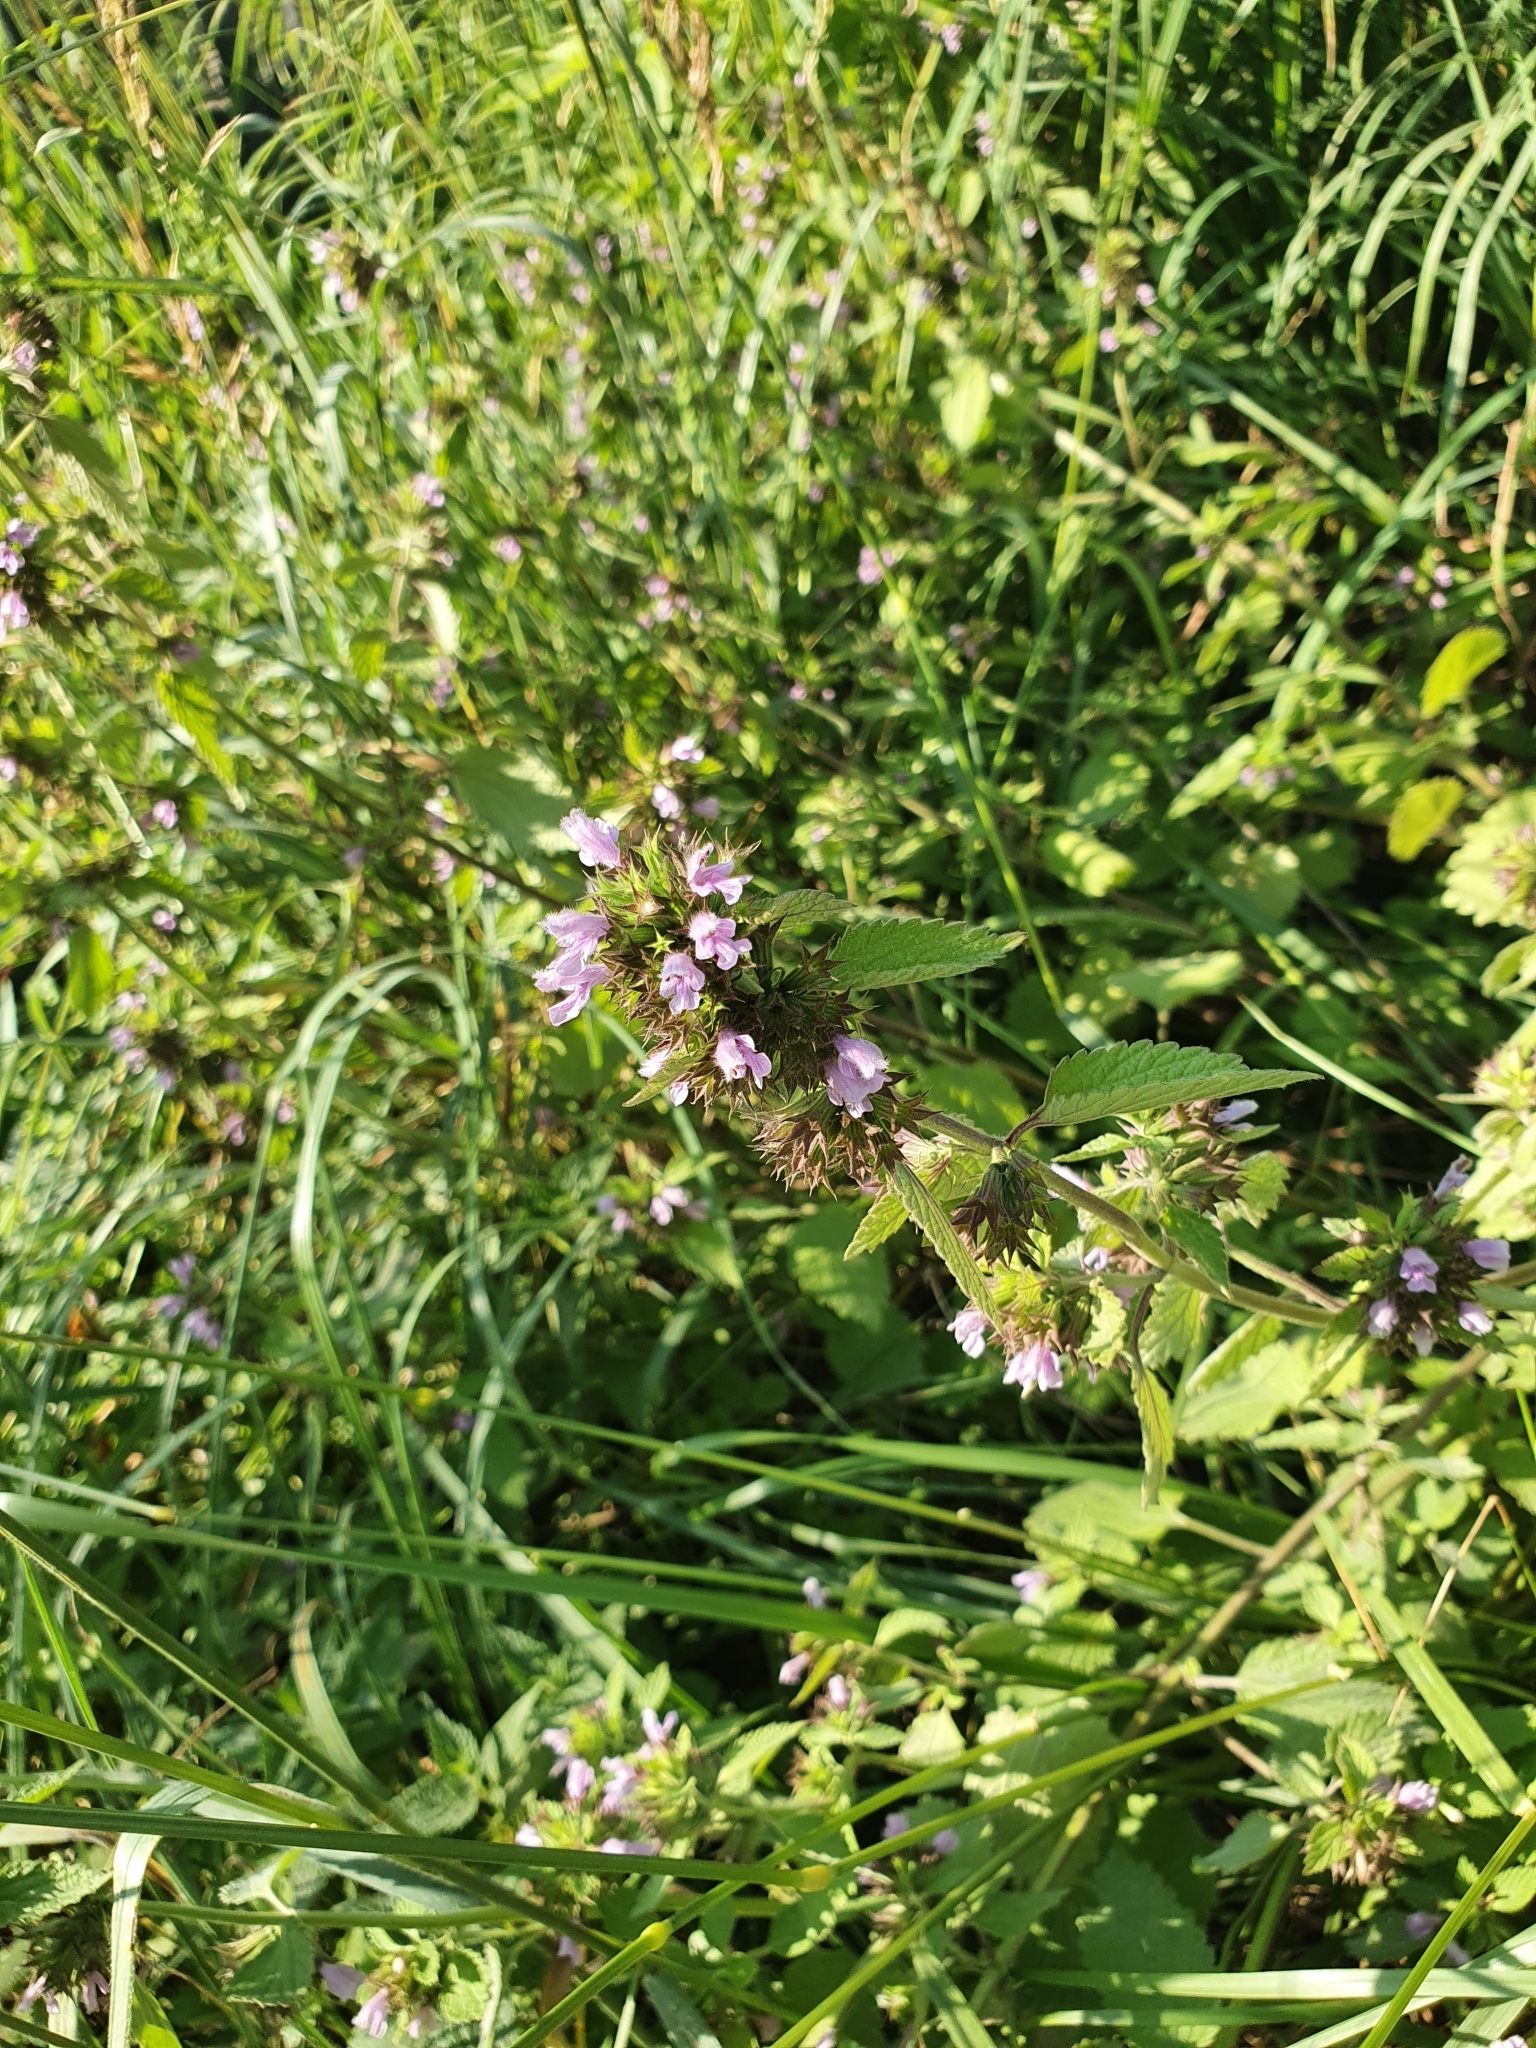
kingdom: Plantae
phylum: Tracheophyta
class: Magnoliopsida
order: Lamiales
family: Lamiaceae
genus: Ballota
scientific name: Ballota nigra
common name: Black horehound
